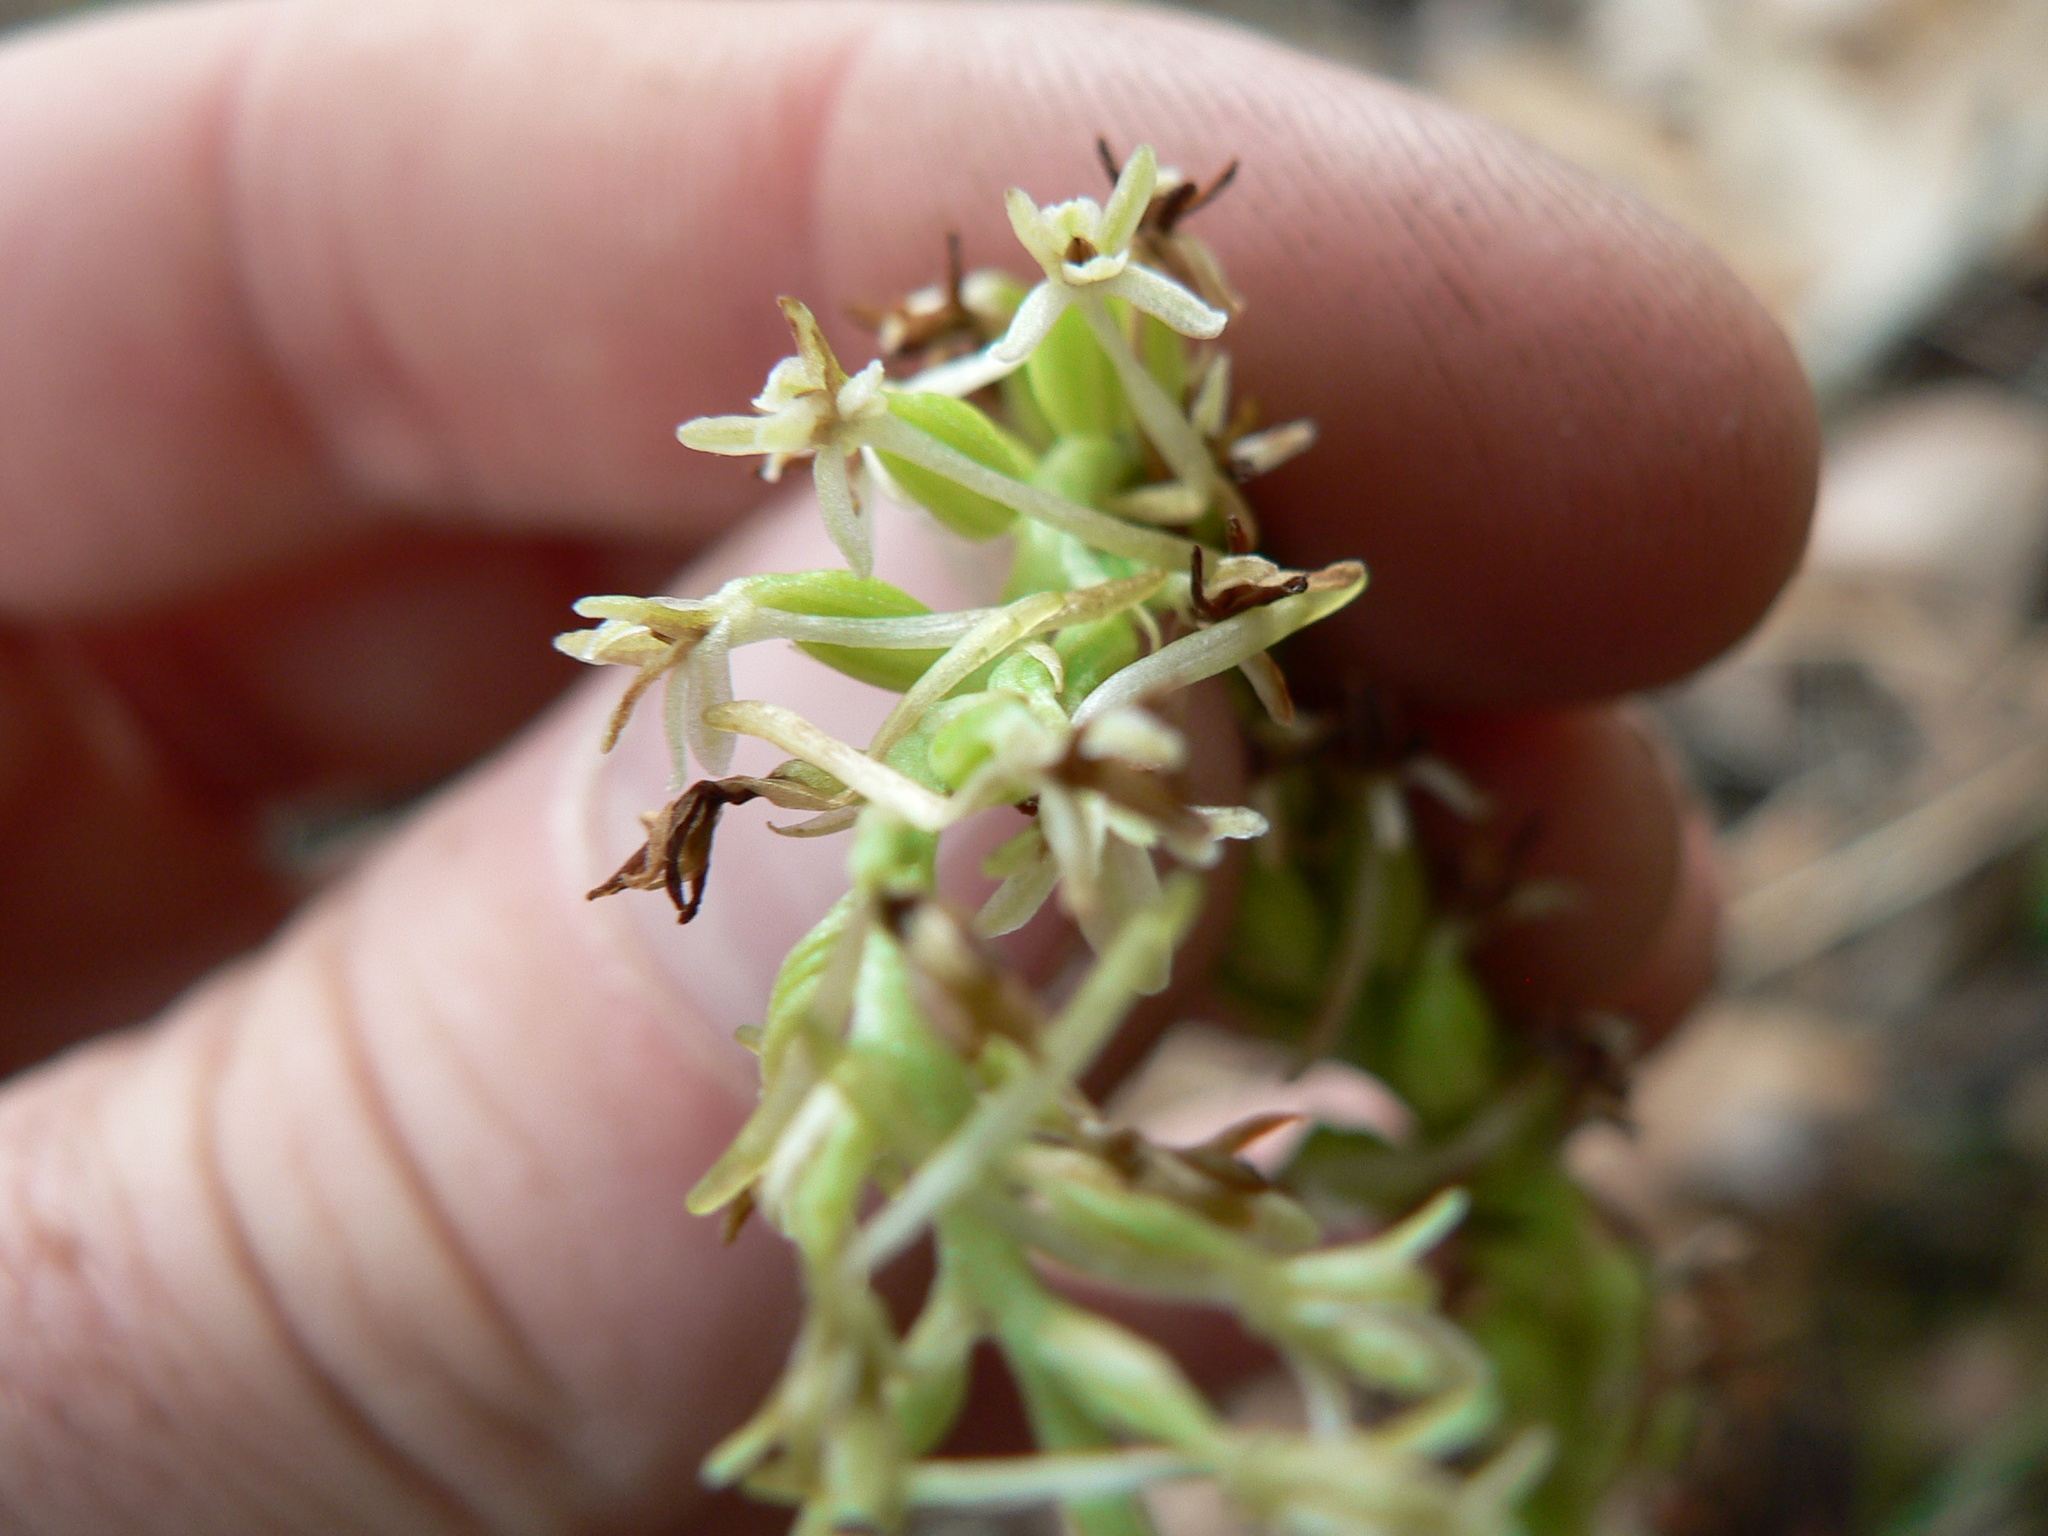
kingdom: Plantae
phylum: Tracheophyta
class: Liliopsida
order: Asparagales
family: Orchidaceae
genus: Platanthera
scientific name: Platanthera transversa
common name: Royal rein orchid
